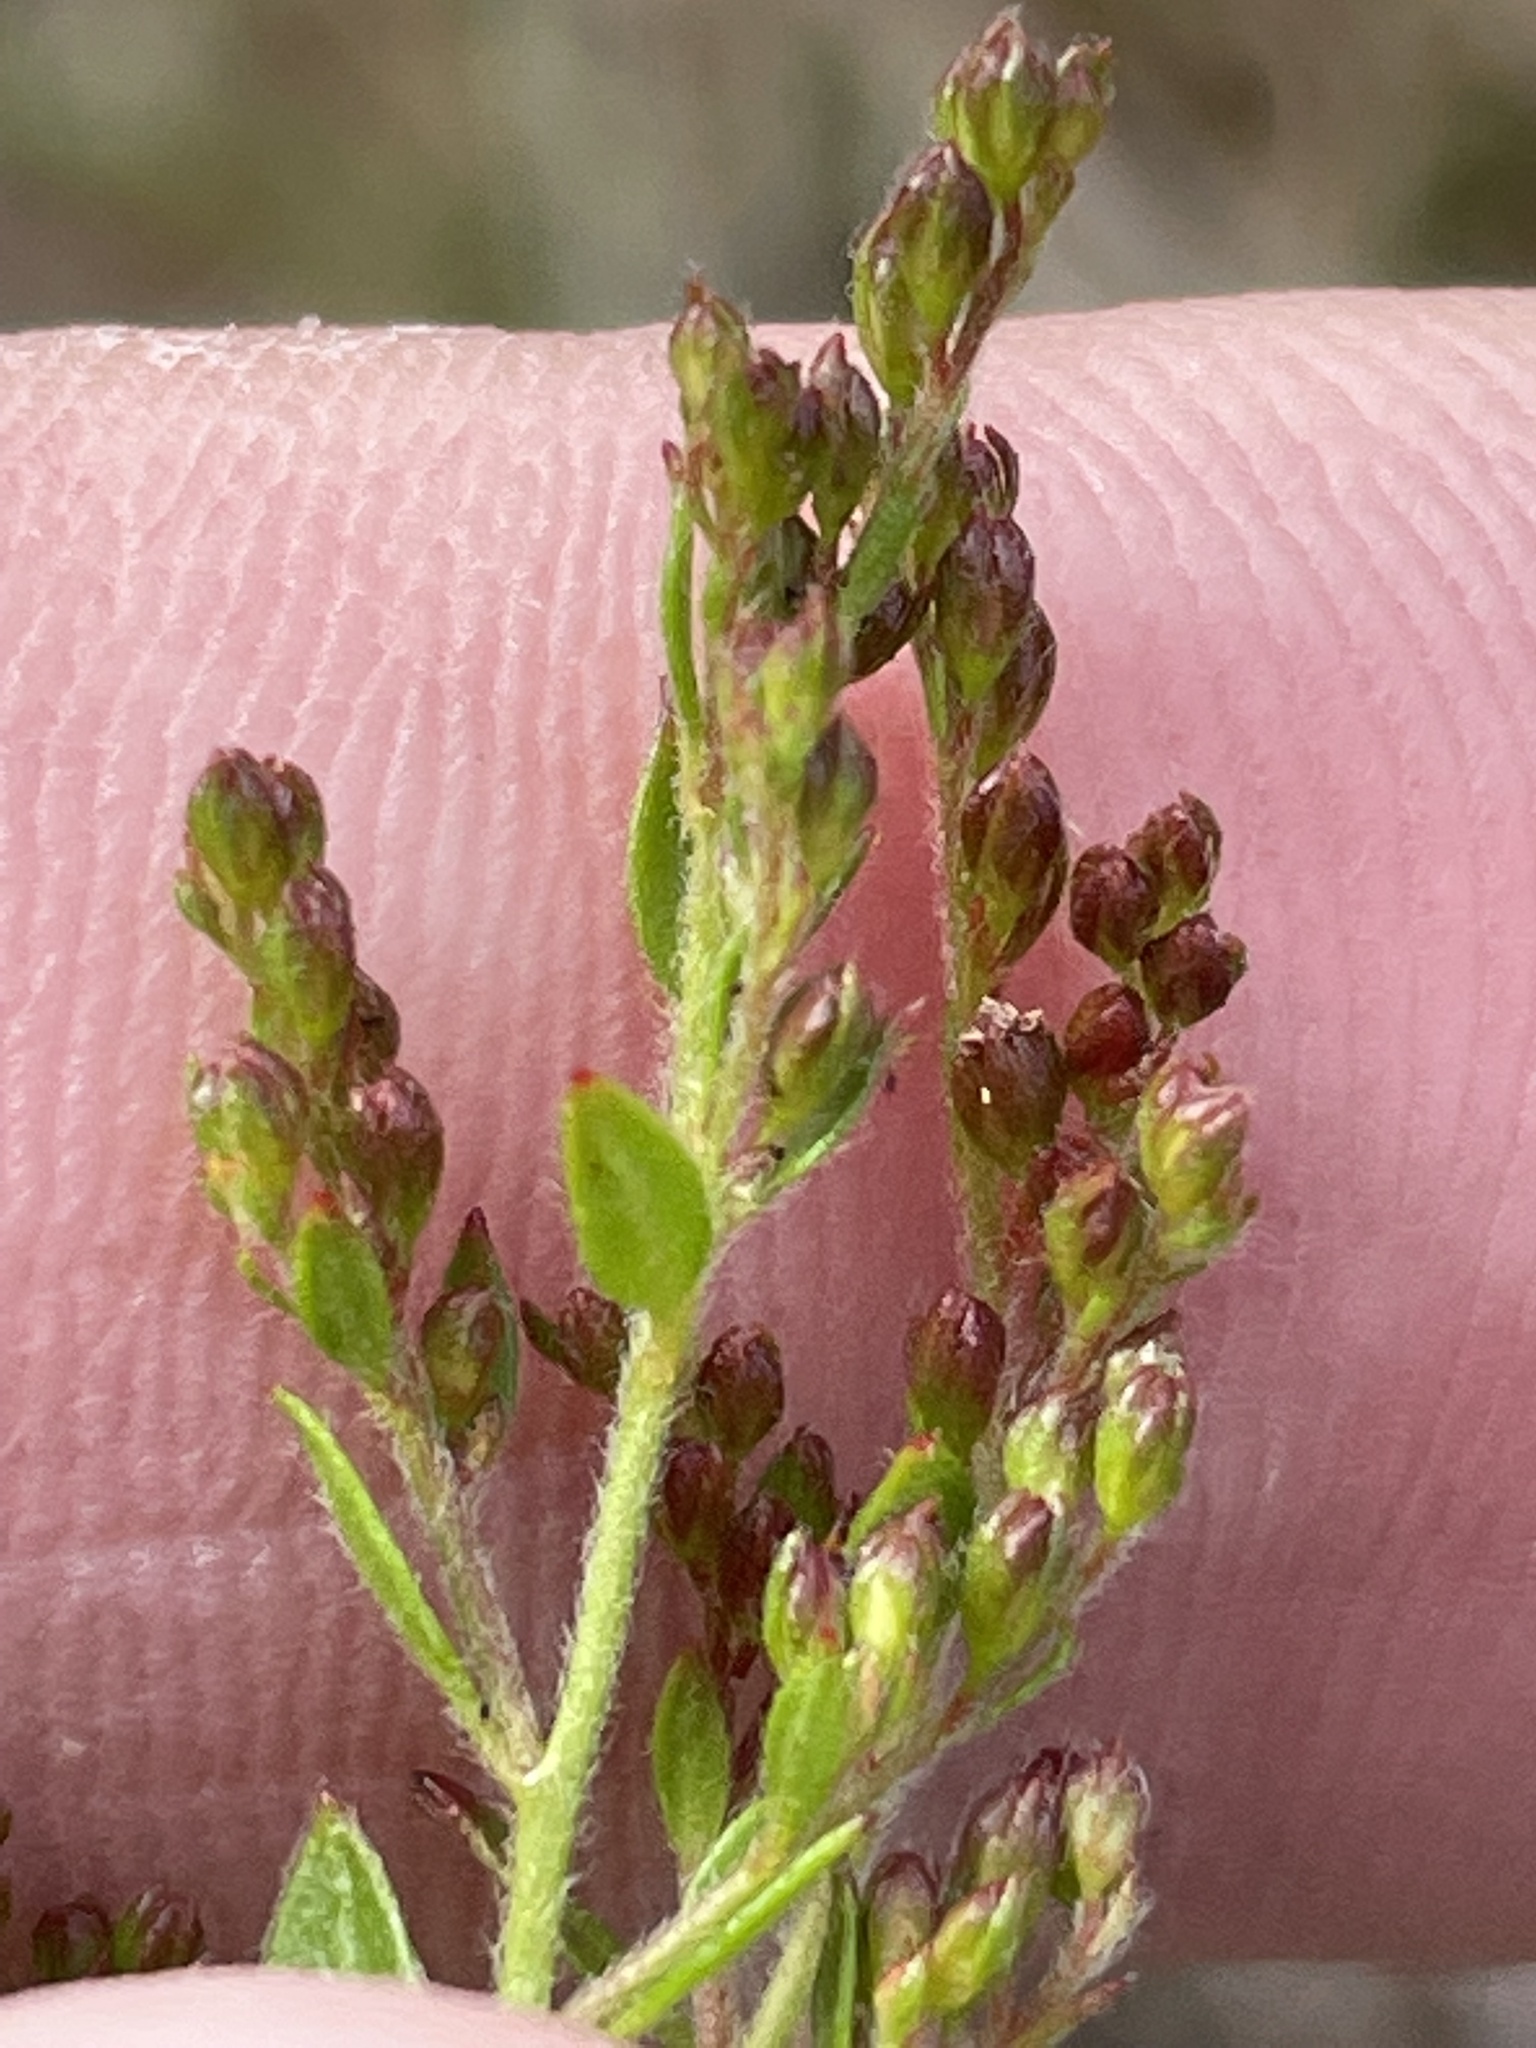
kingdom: Plantae
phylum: Tracheophyta
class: Magnoliopsida
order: Malvales
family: Cistaceae
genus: Lechea
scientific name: Lechea mucronata
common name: Hairy pinweed
